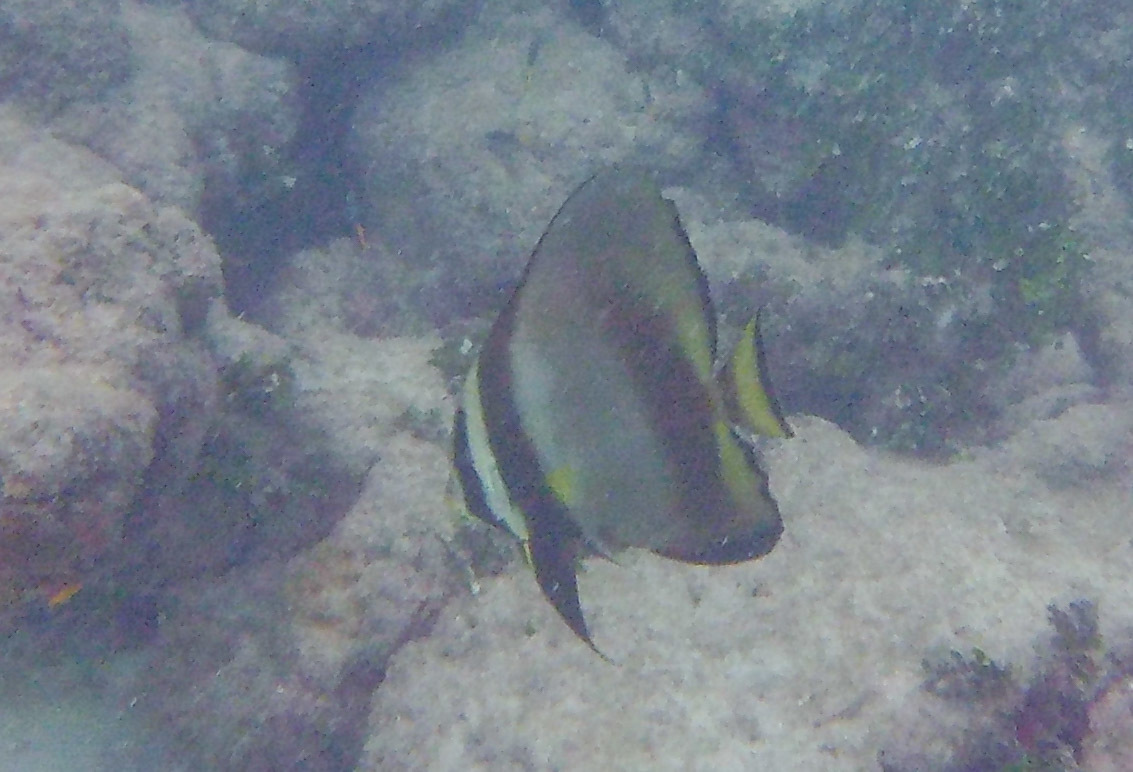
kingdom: Animalia
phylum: Chordata
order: Perciformes
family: Ephippidae
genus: Platax
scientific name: Platax pinnatus
